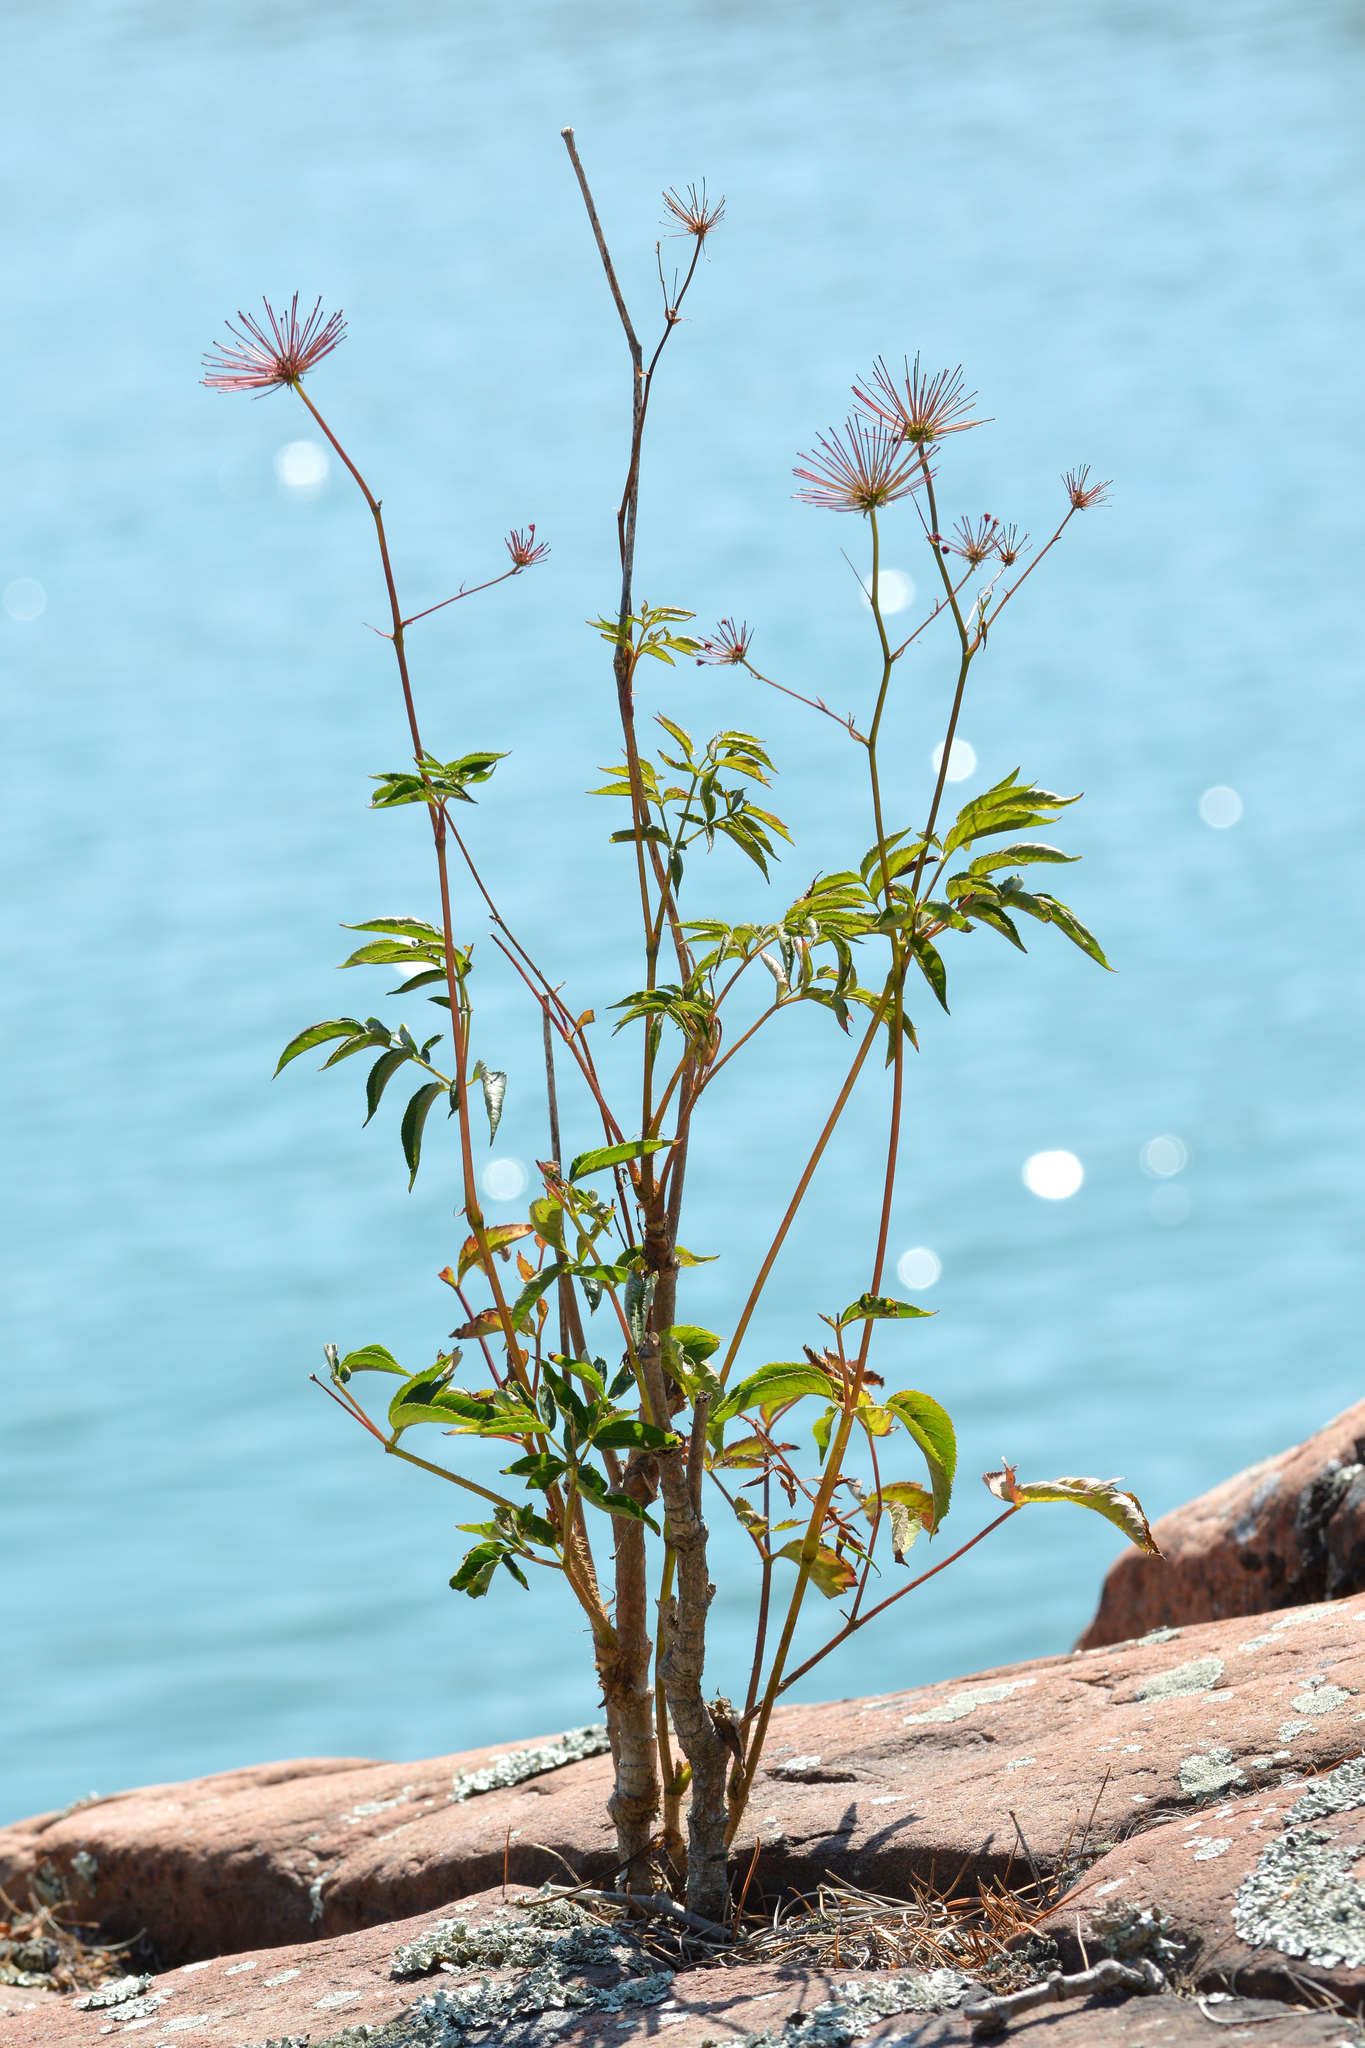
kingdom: Plantae
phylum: Tracheophyta
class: Magnoliopsida
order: Apiales
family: Araliaceae
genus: Aralia
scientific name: Aralia hispida
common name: Bristly sarsaparilla
